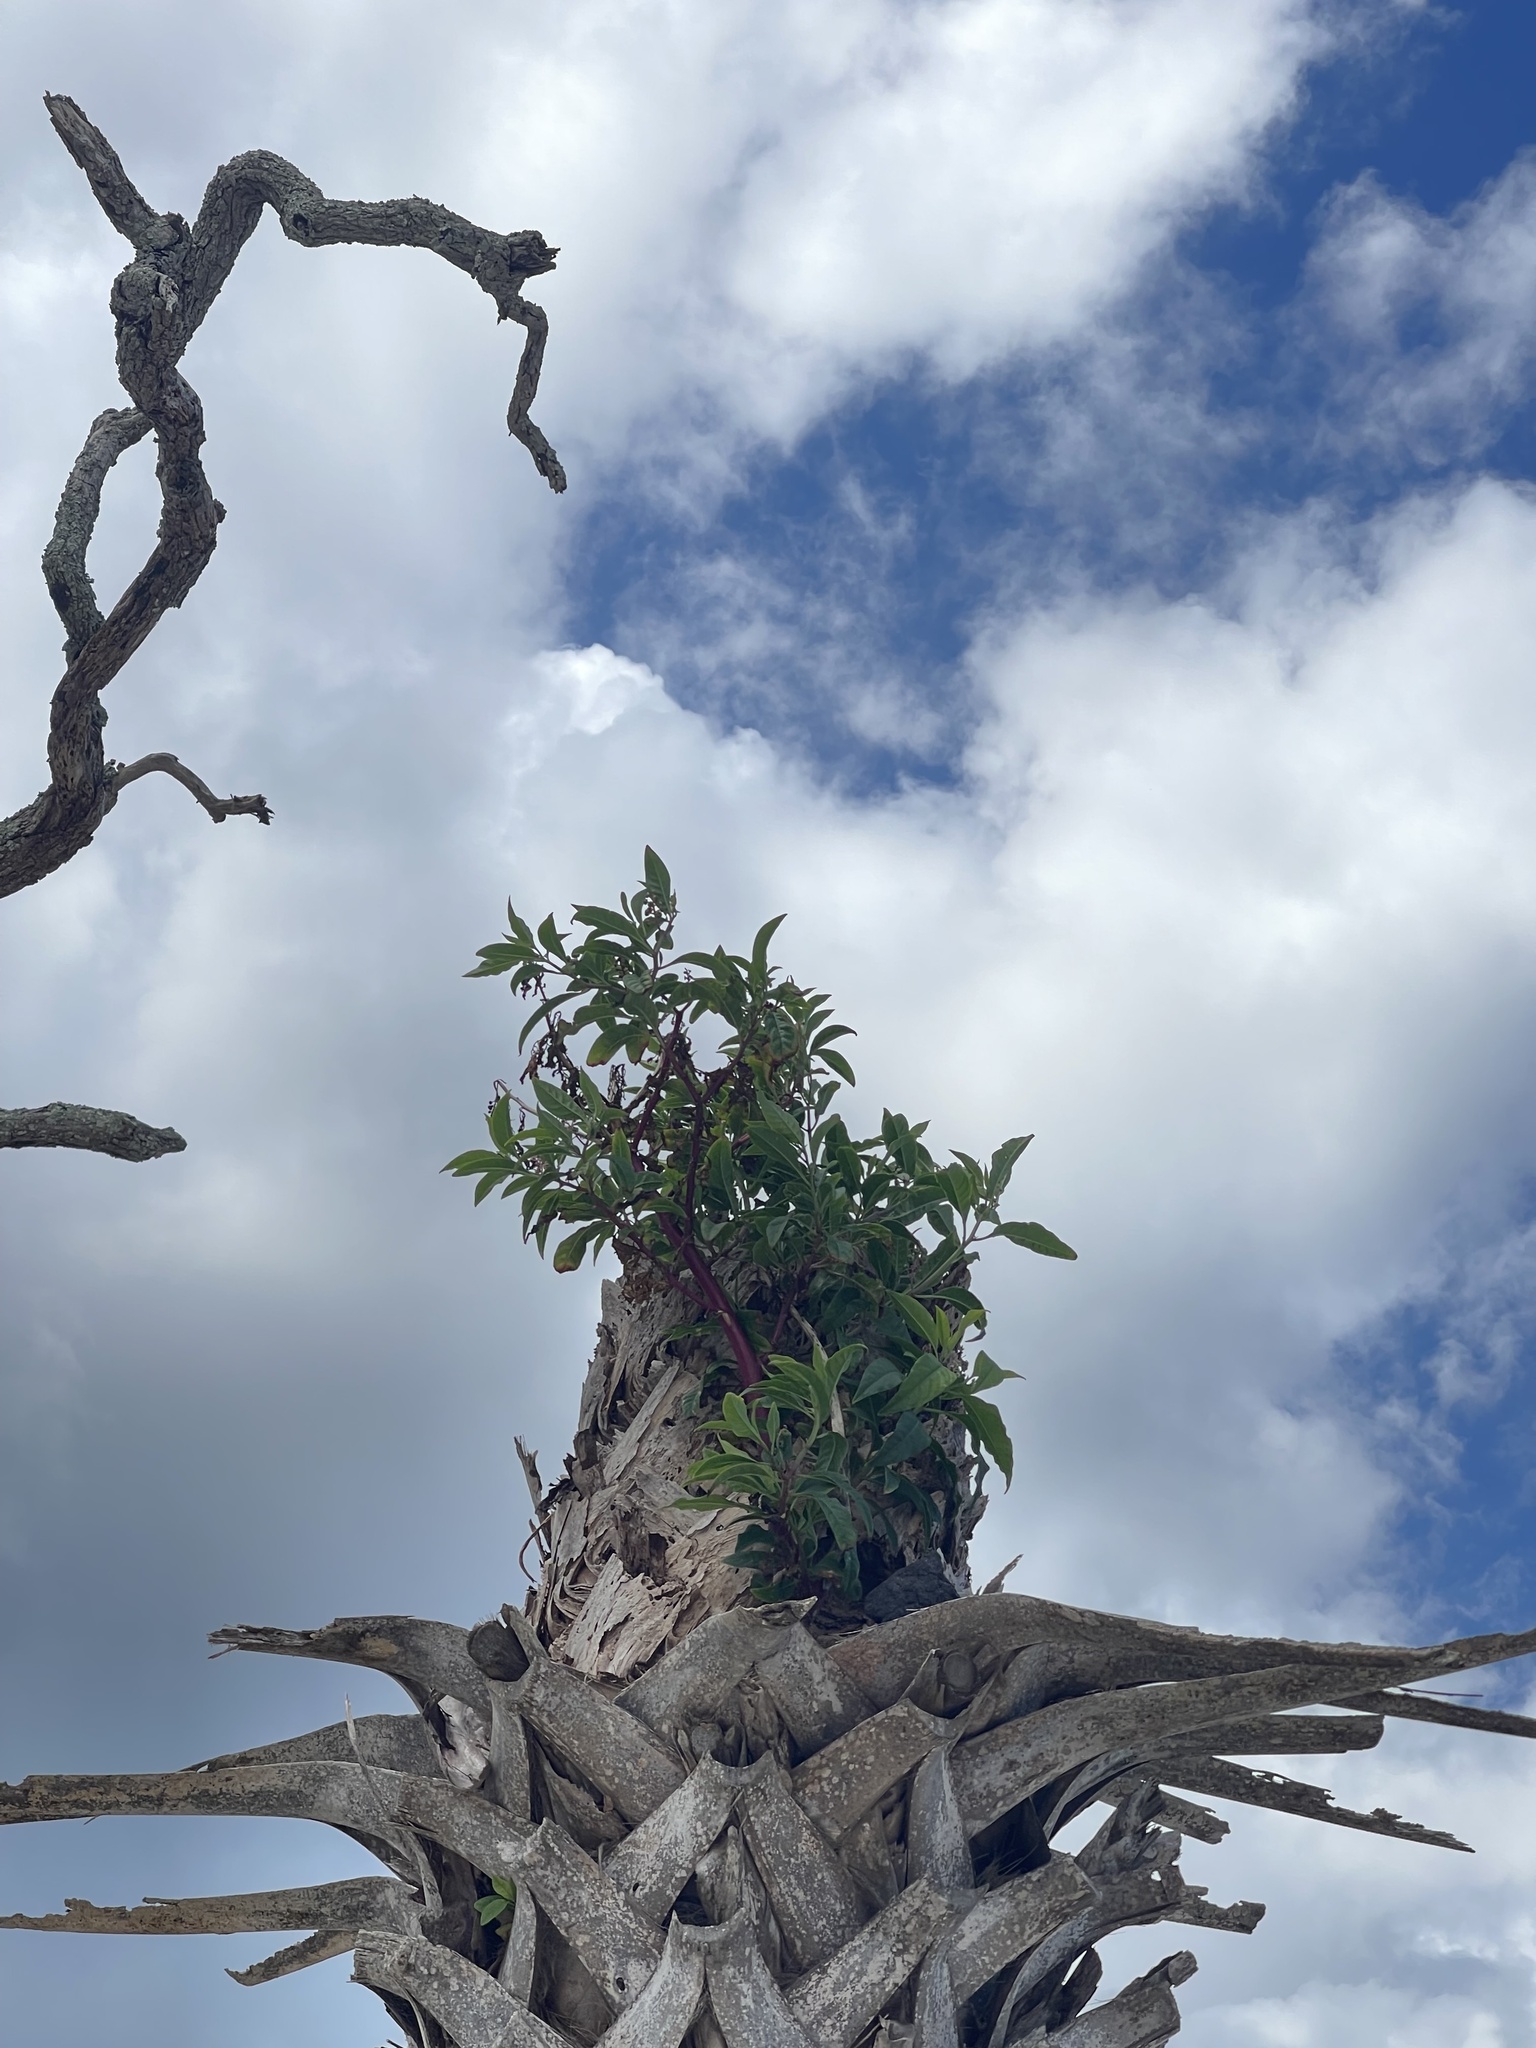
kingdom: Plantae
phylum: Tracheophyta
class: Magnoliopsida
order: Caryophyllales
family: Phytolaccaceae
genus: Phytolacca
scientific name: Phytolacca americana
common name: American pokeweed
